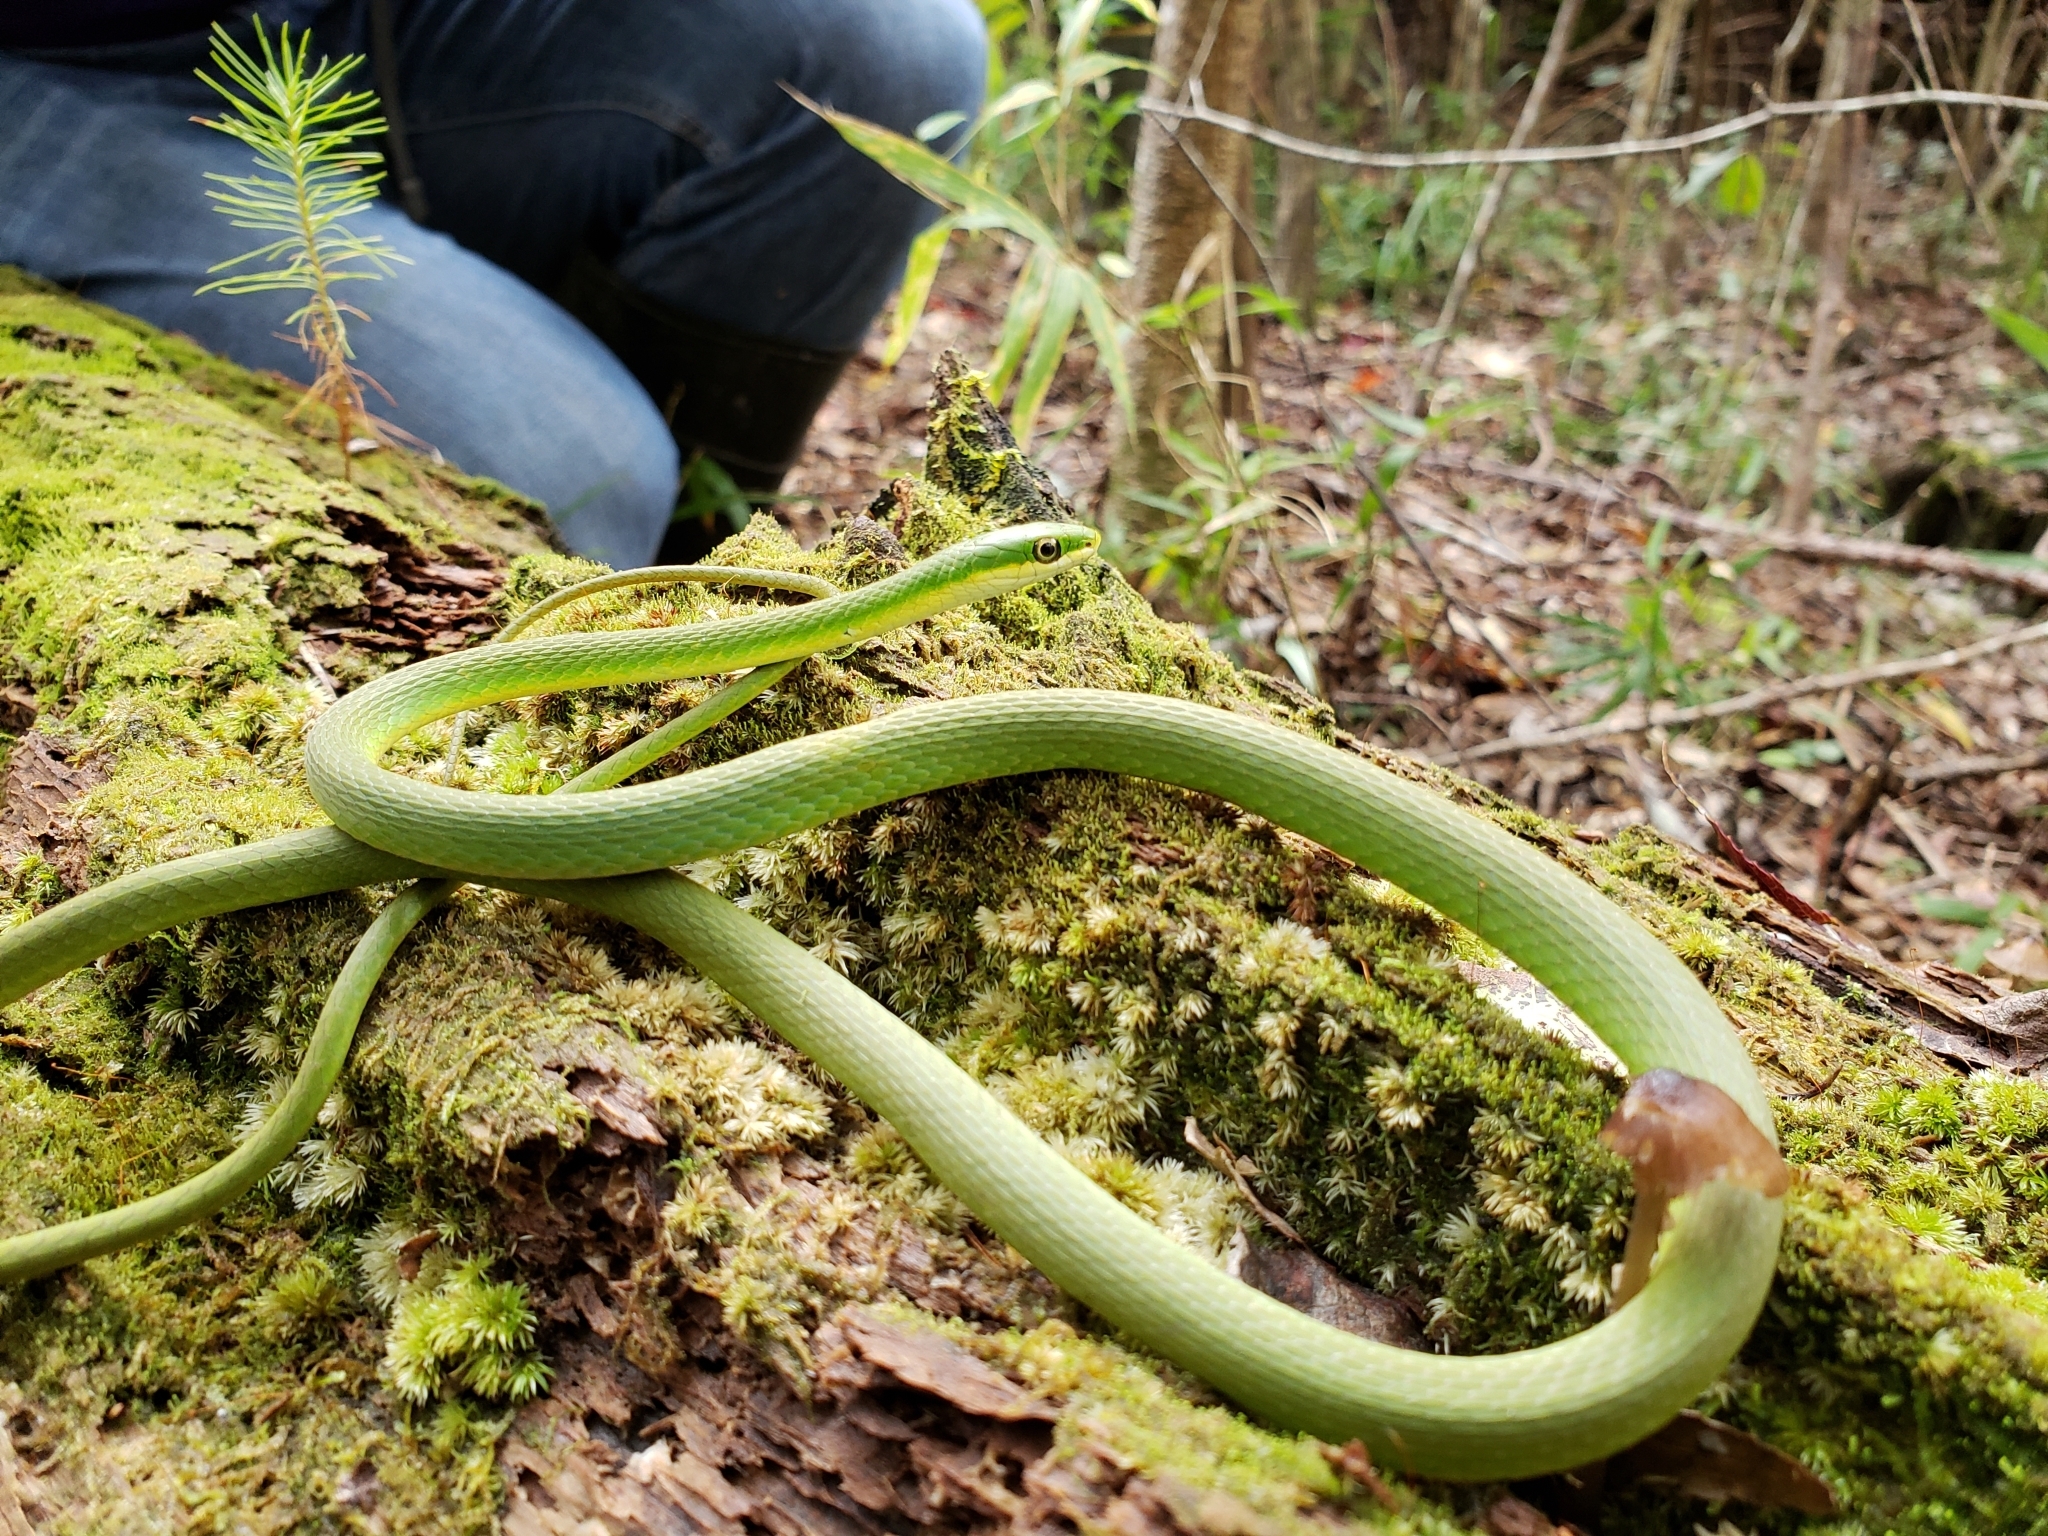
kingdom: Animalia
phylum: Chordata
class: Squamata
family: Colubridae
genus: Opheodrys
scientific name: Opheodrys aestivus
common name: Rough greensnake
